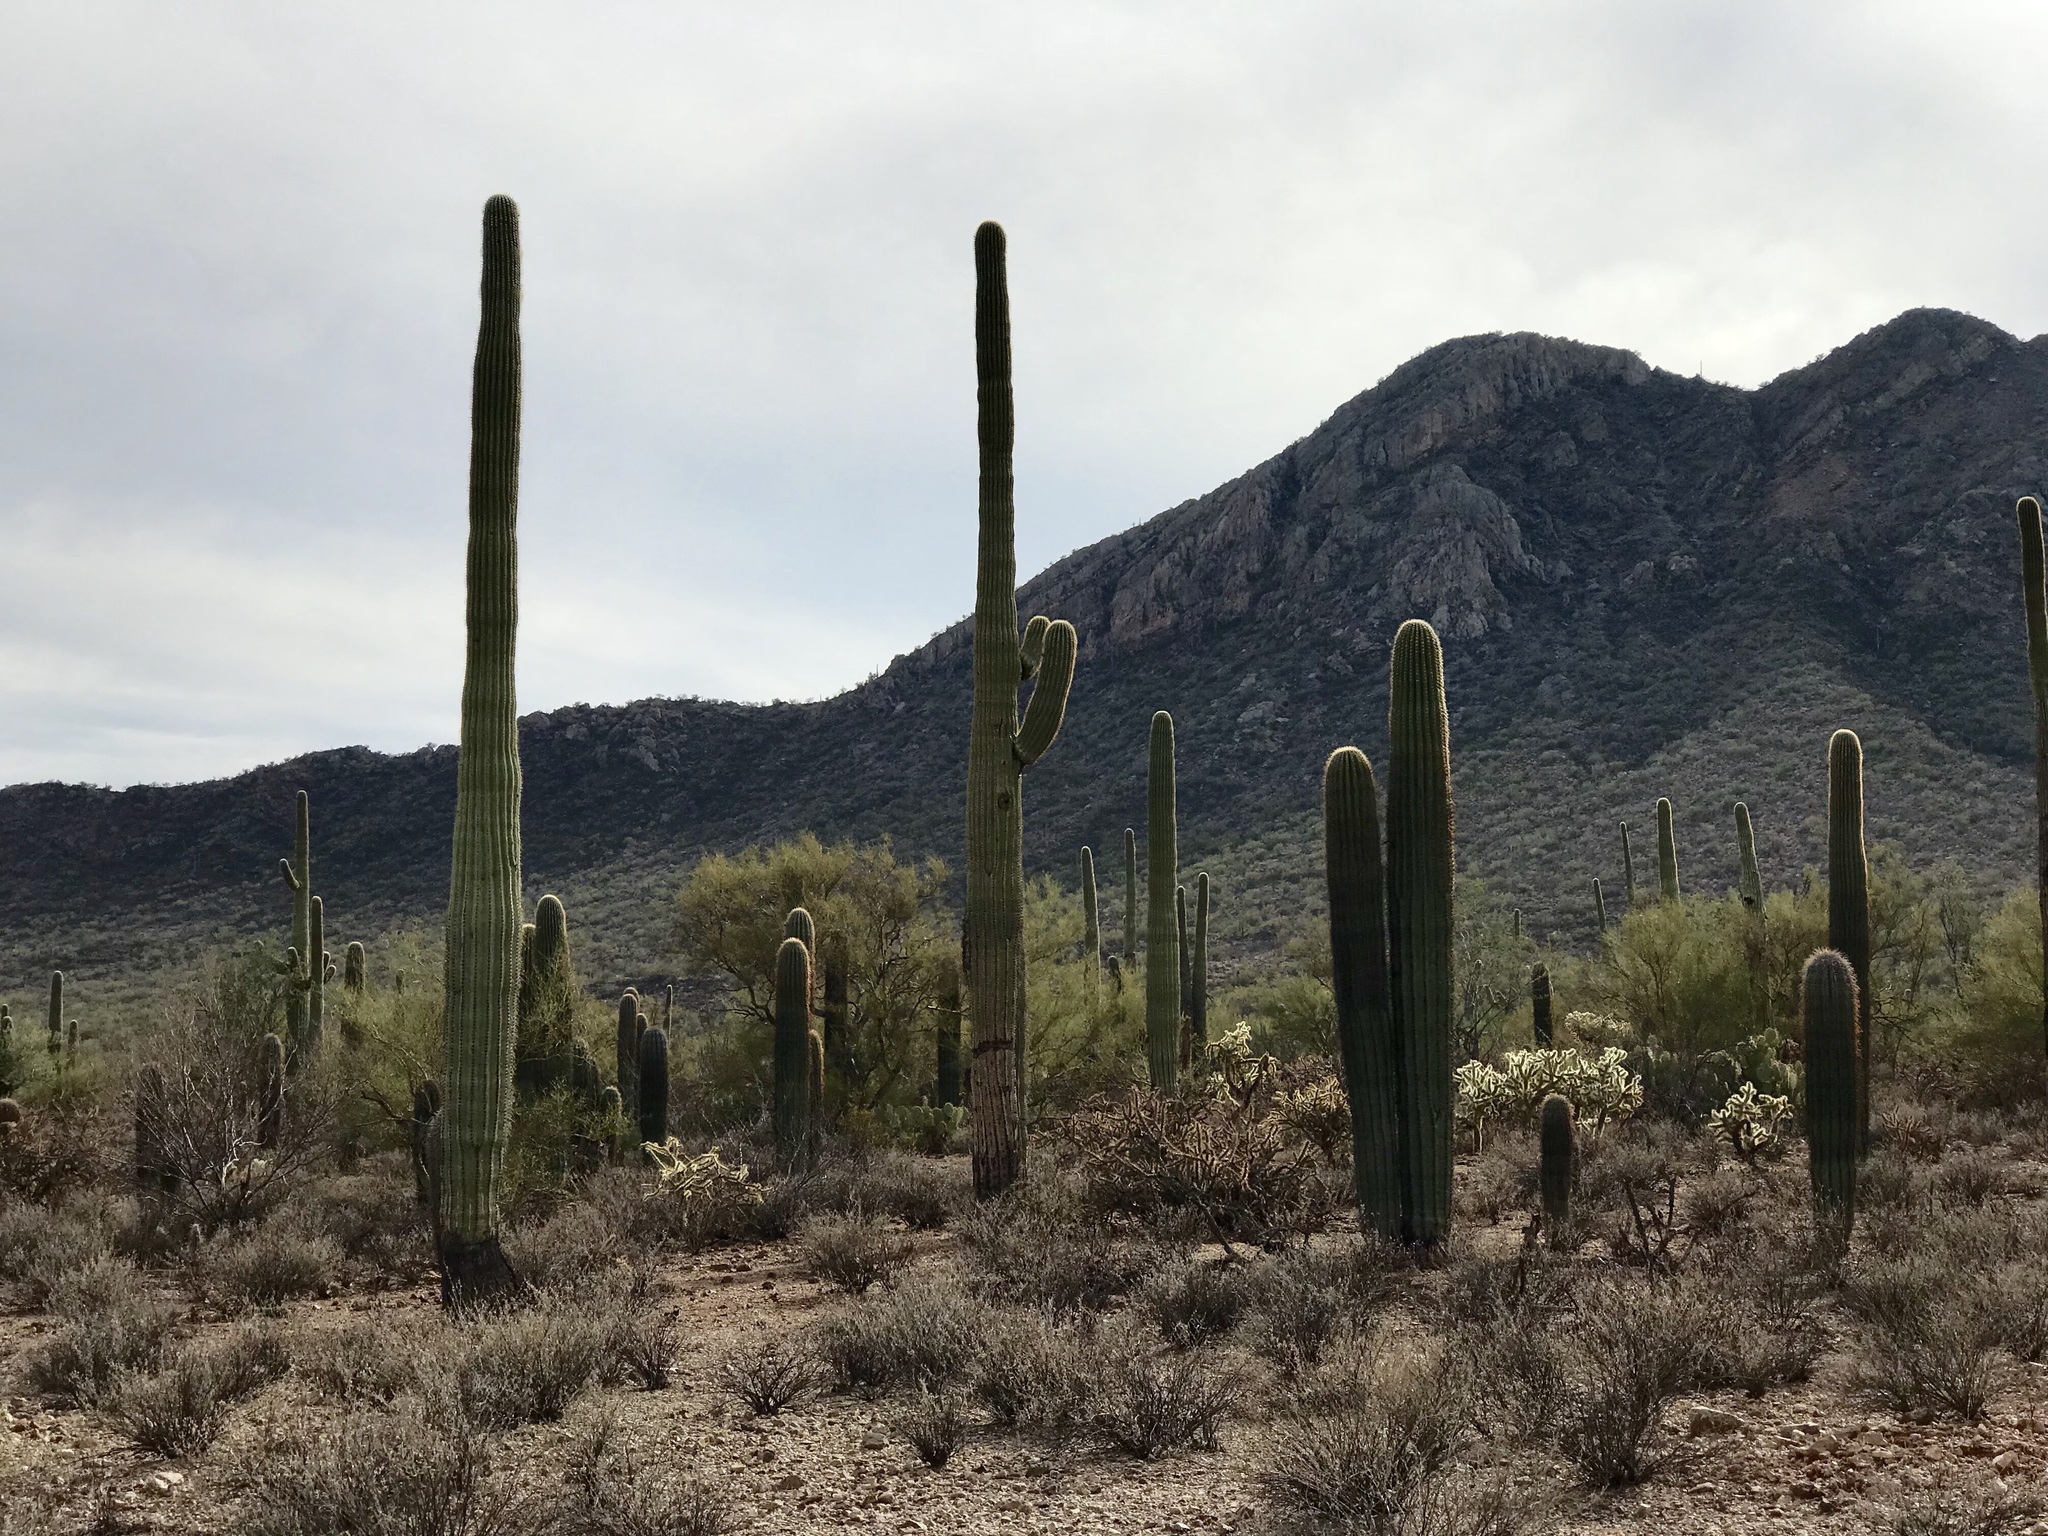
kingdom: Plantae
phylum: Tracheophyta
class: Magnoliopsida
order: Caryophyllales
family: Cactaceae
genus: Carnegiea
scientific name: Carnegiea gigantea
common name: Saguaro
